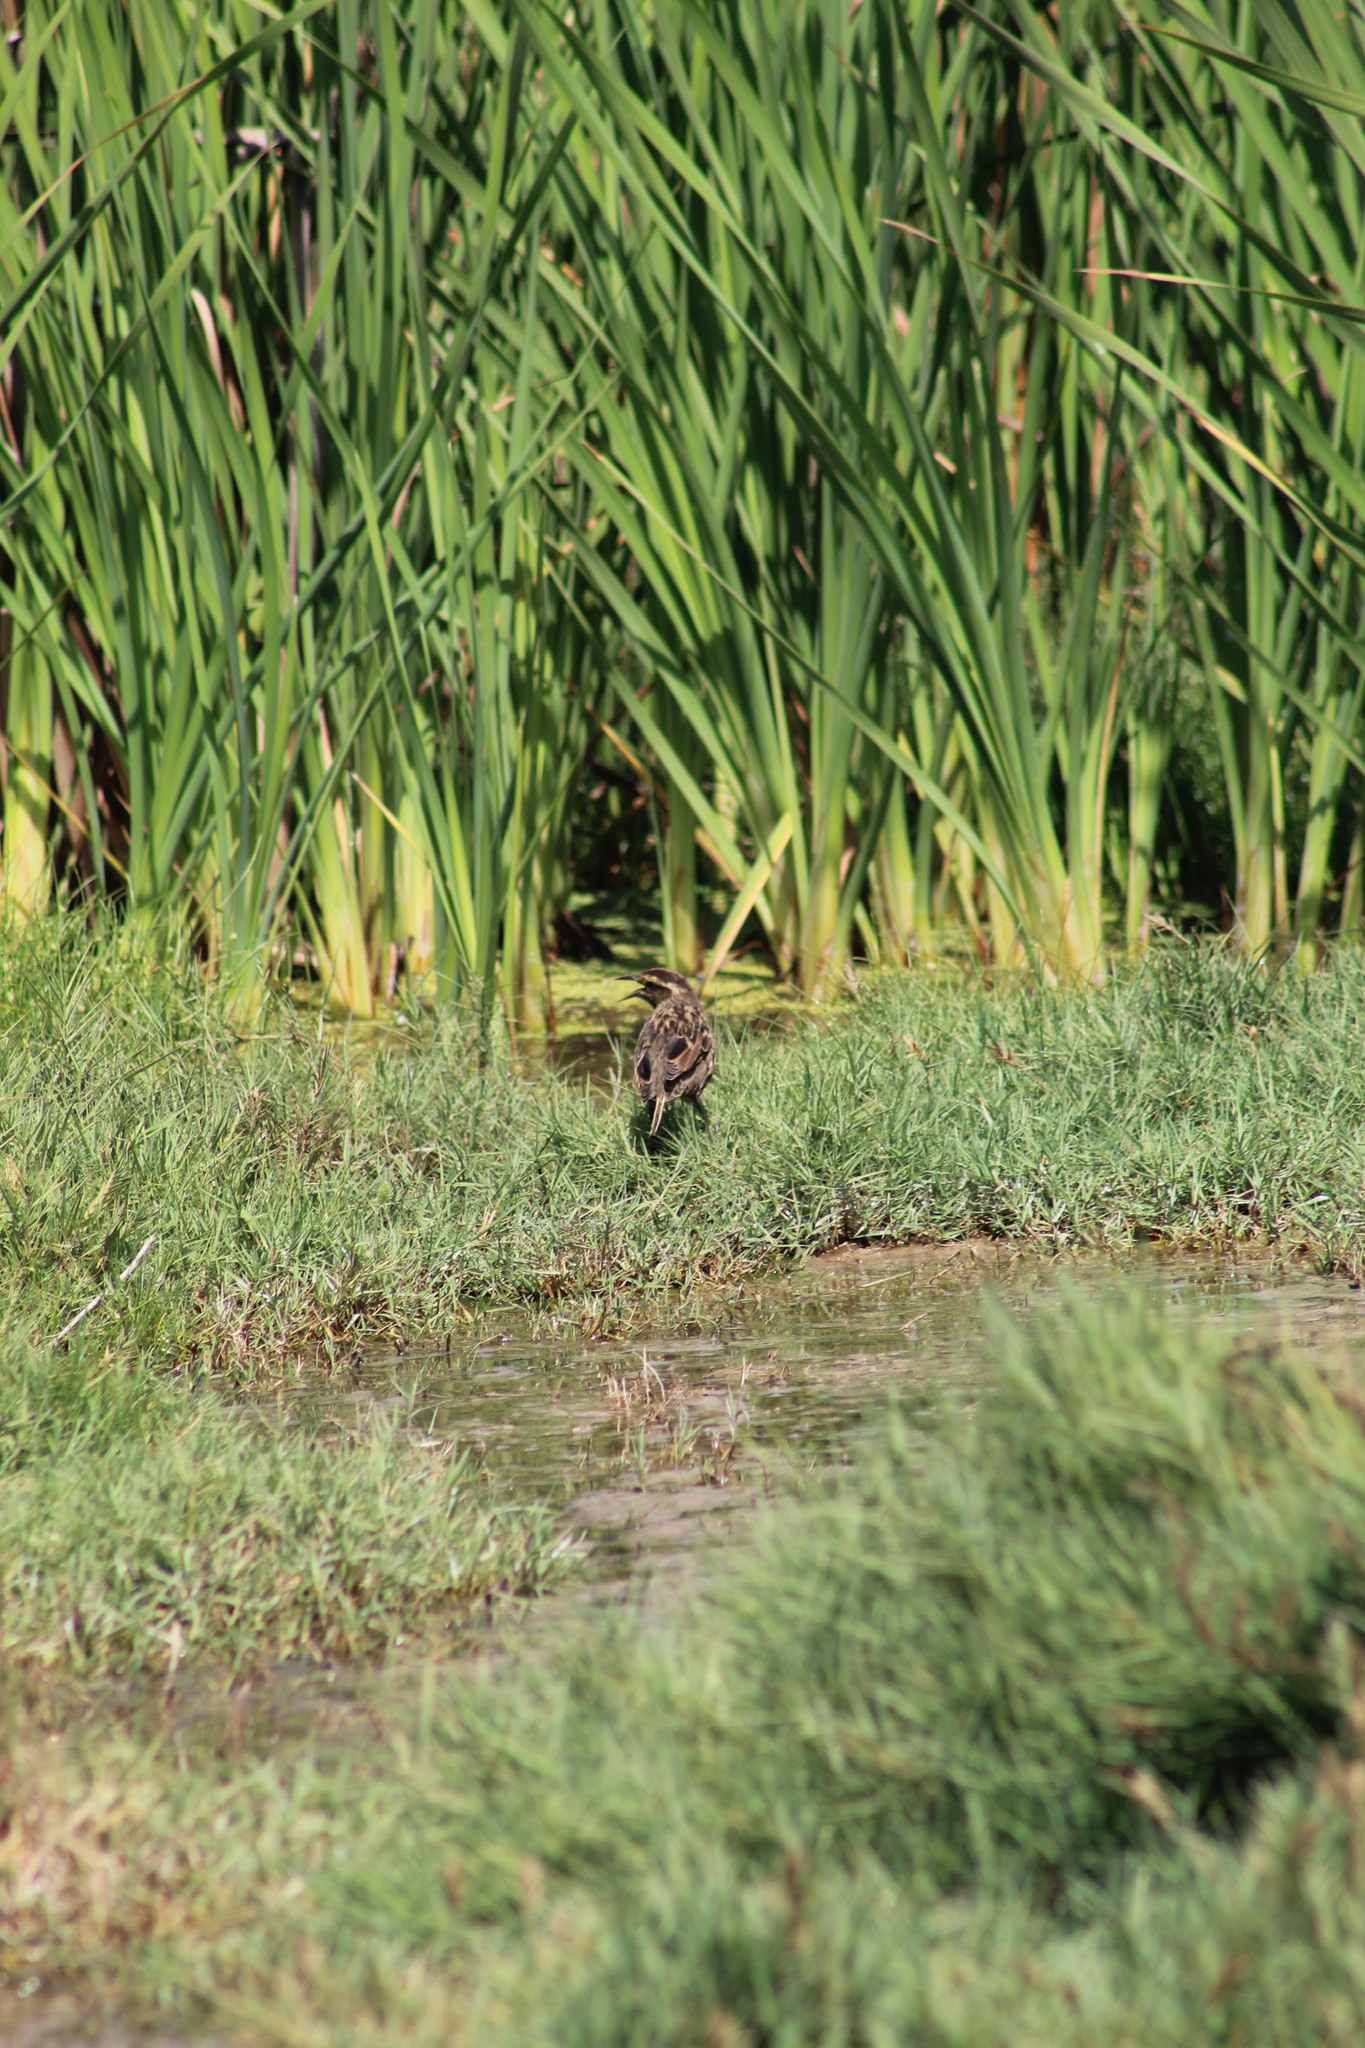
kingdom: Animalia
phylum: Chordata
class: Aves
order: Passeriformes
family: Icteridae
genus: Agelasticus
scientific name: Agelasticus thilius
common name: Yellow-winged blackbird
